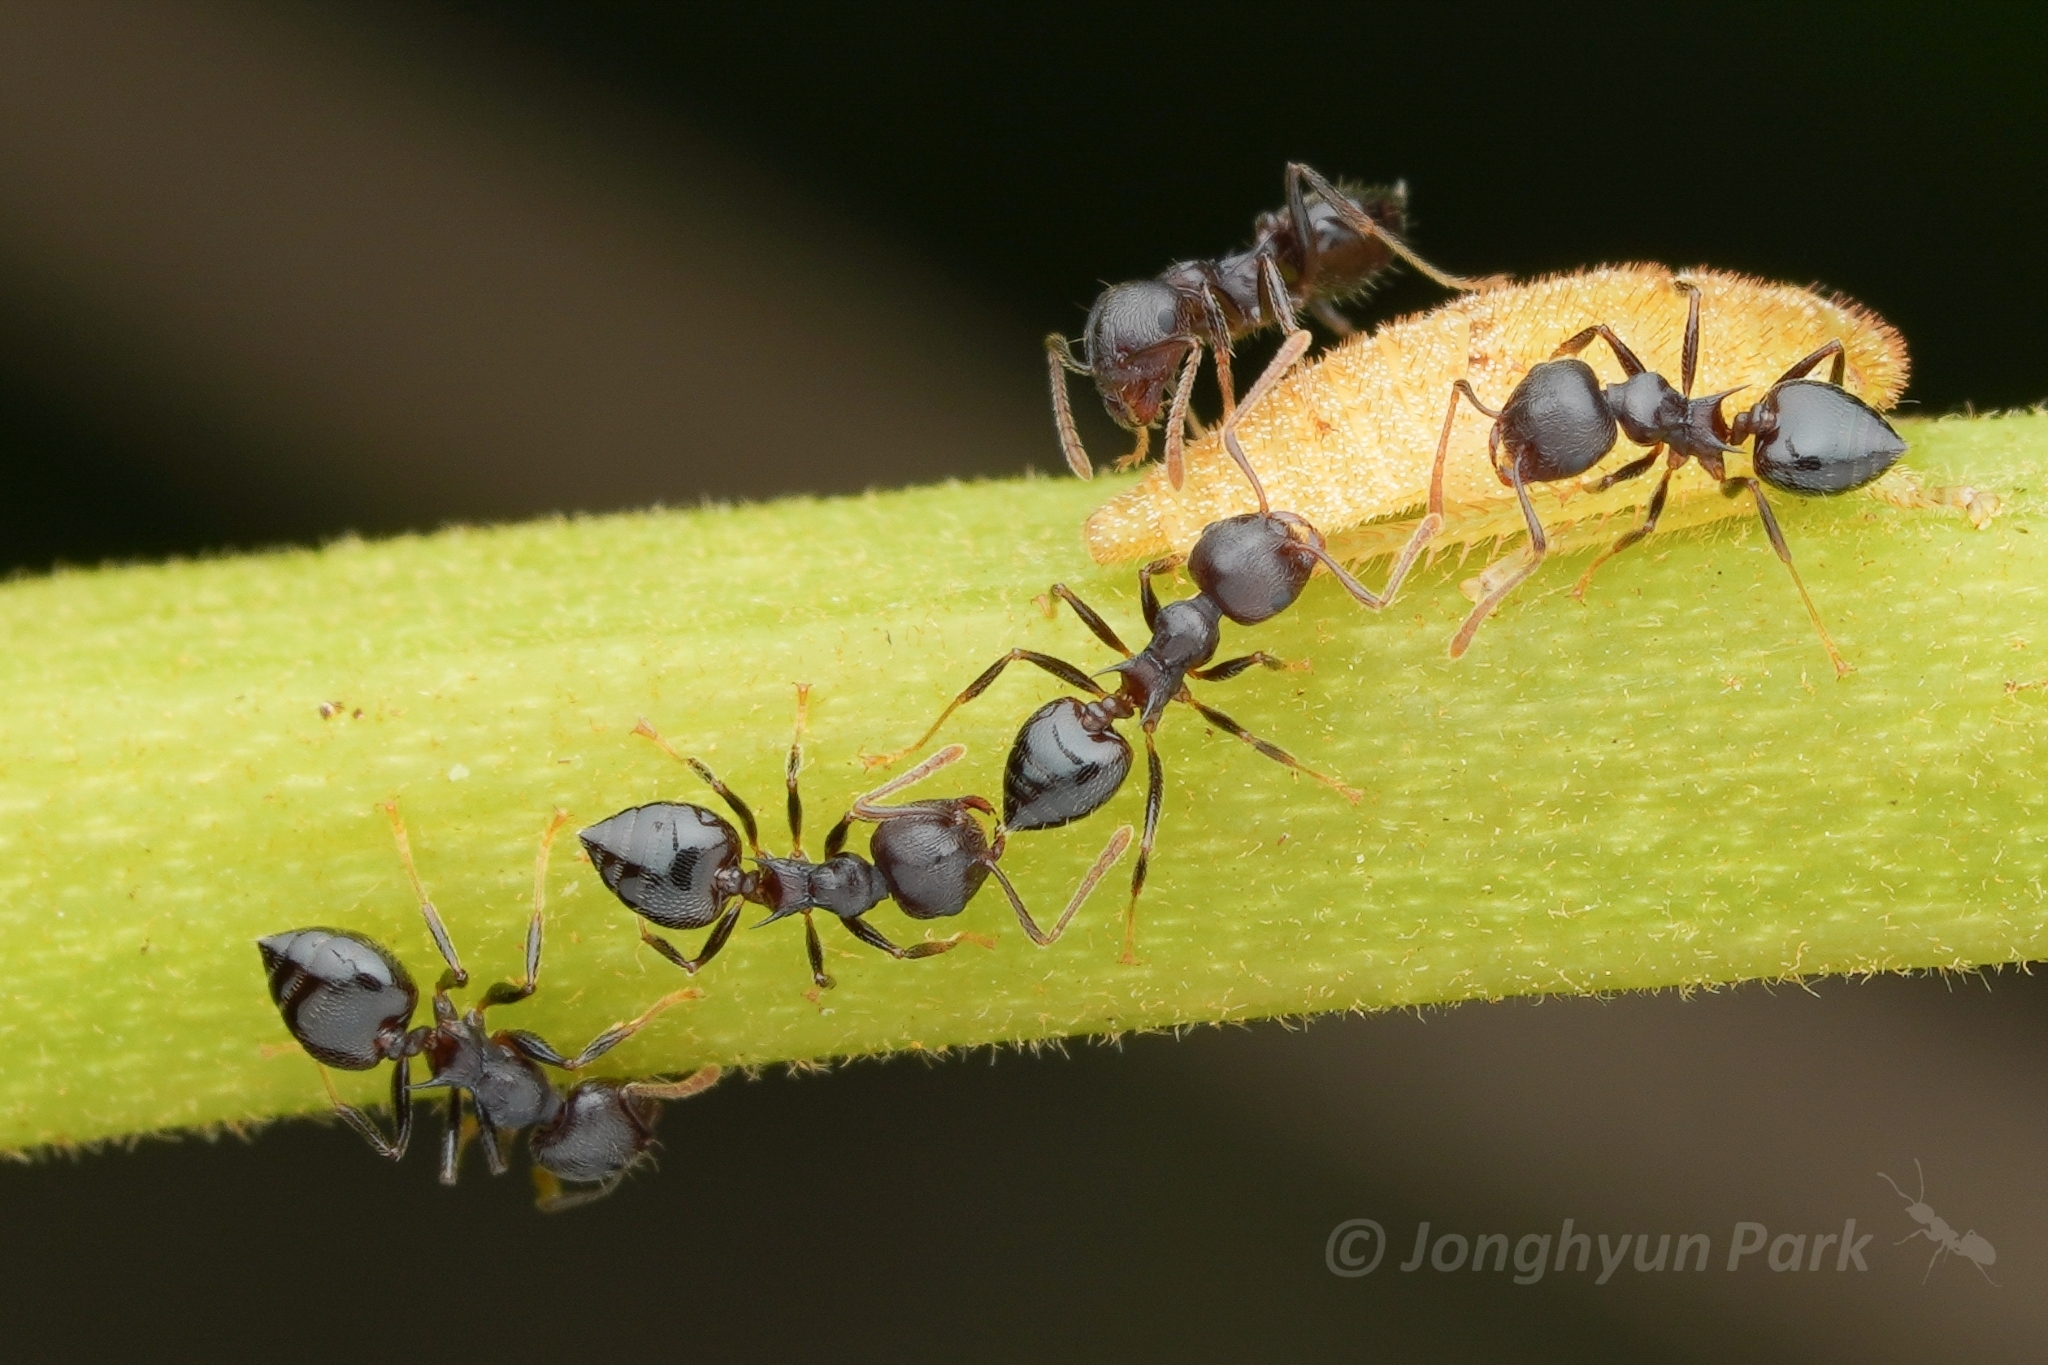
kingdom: Animalia
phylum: Arthropoda
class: Insecta
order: Hymenoptera
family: Formicidae
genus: Crematogaster
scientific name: Crematogaster modiglianii
